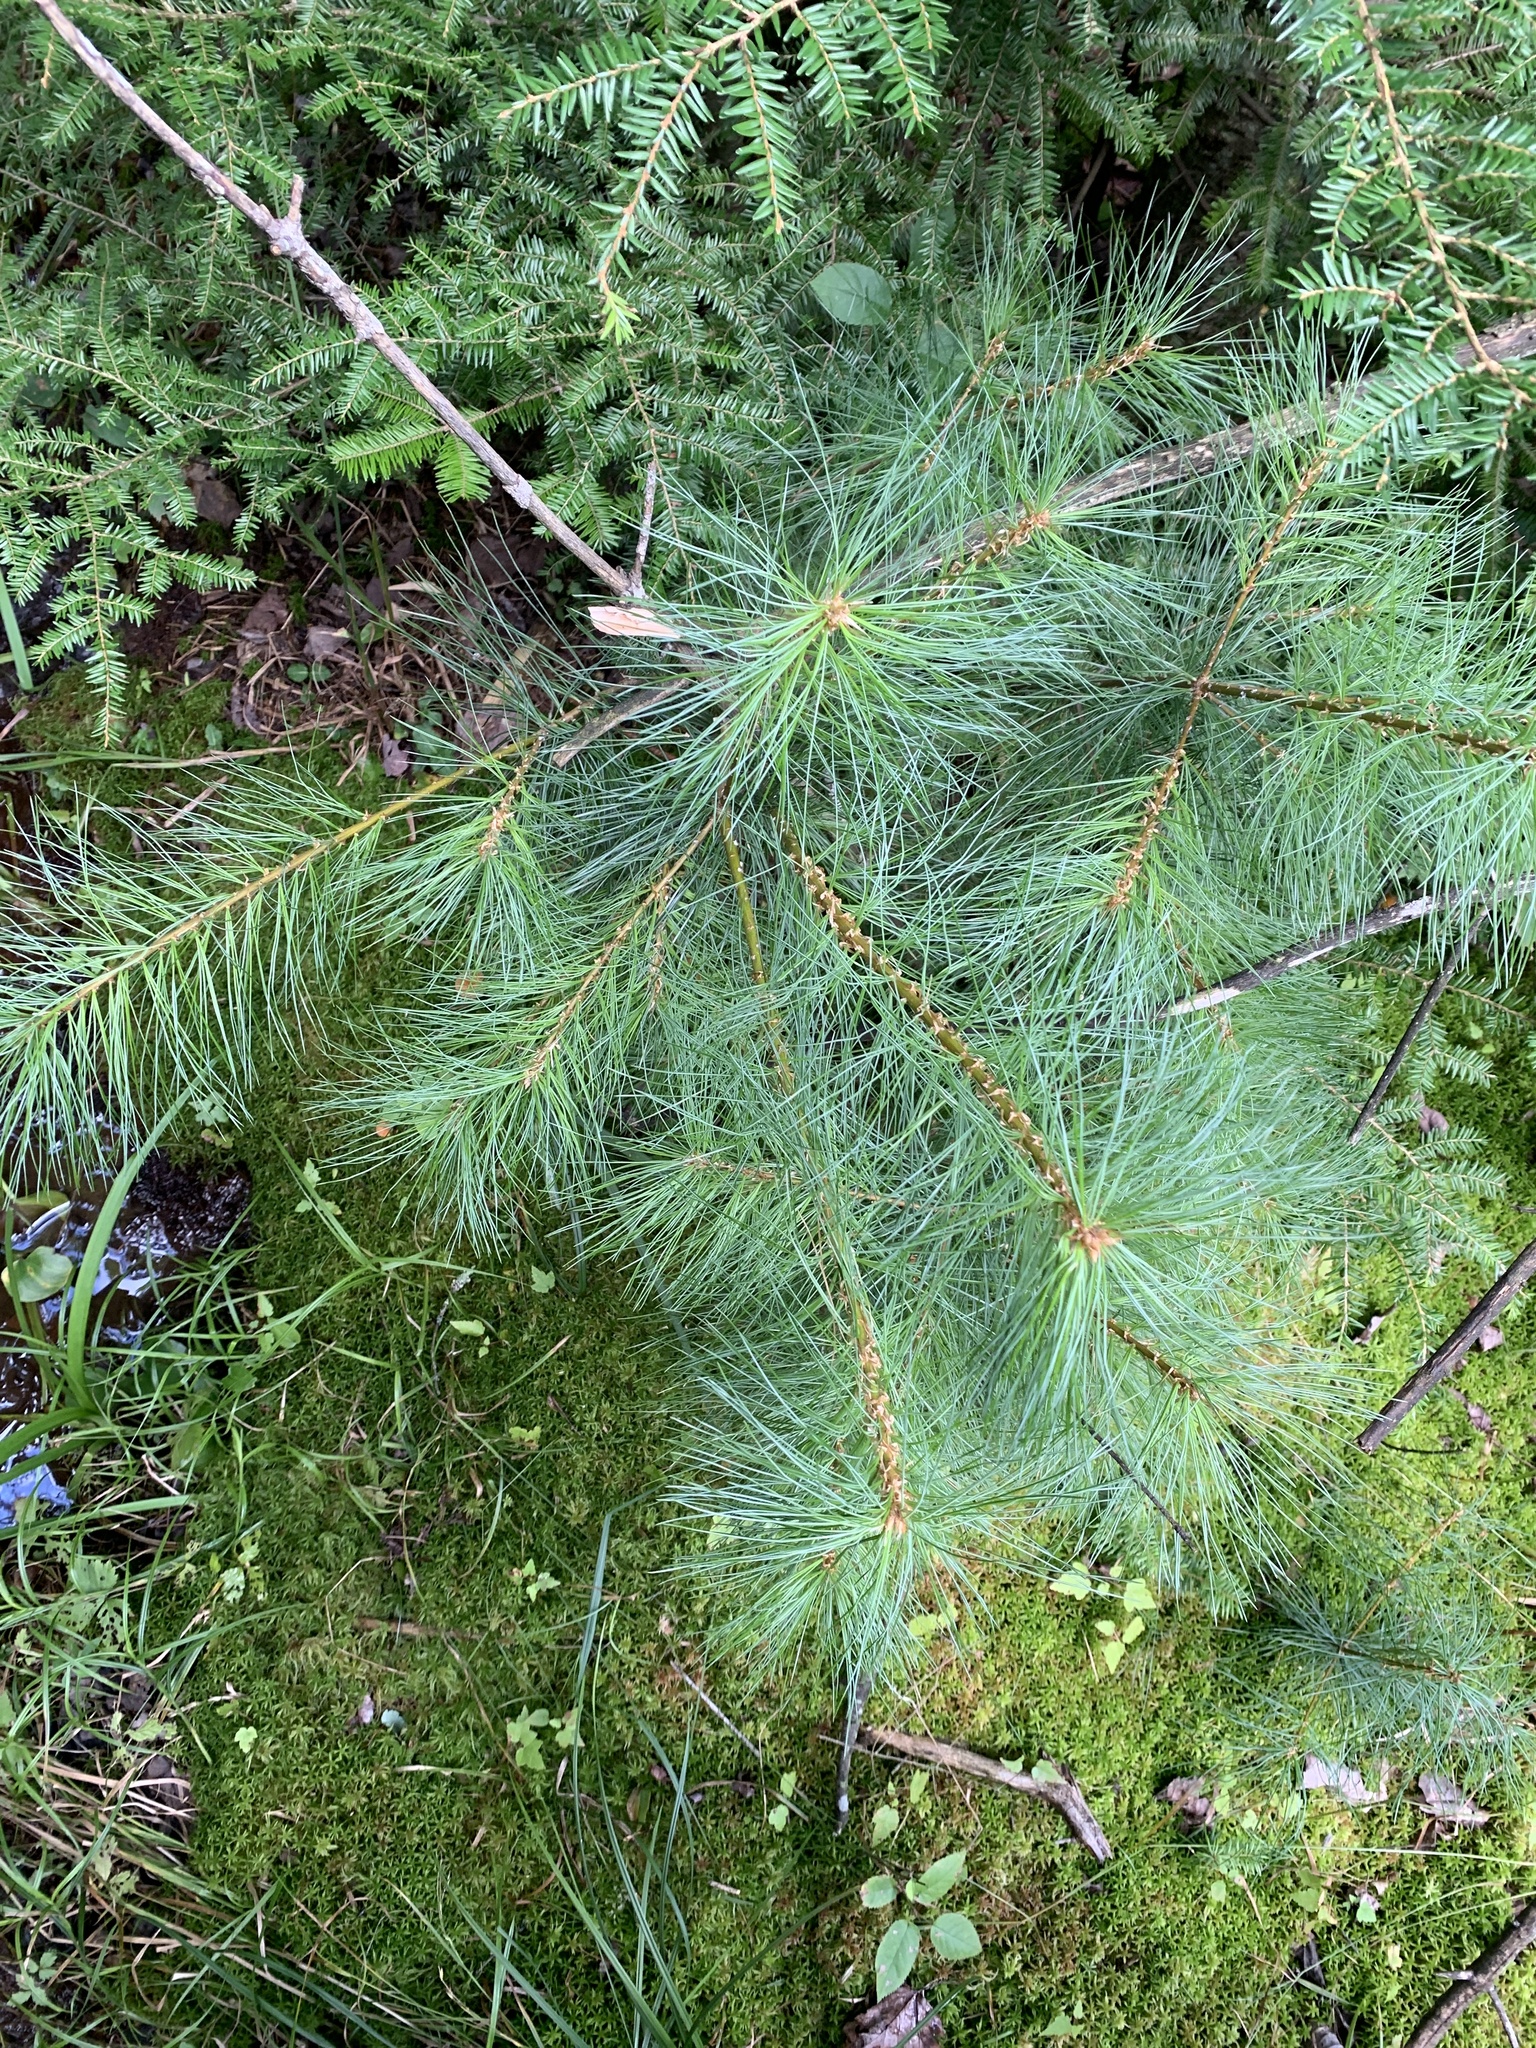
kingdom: Plantae
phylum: Tracheophyta
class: Pinopsida
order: Pinales
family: Pinaceae
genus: Pinus
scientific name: Pinus strobus
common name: Weymouth pine
